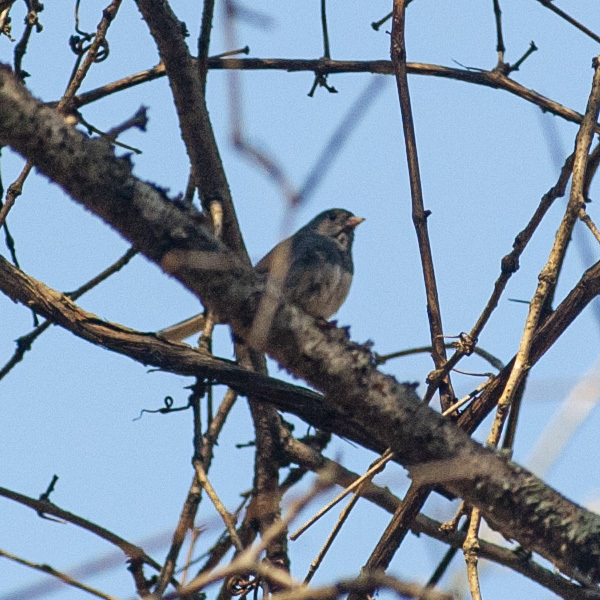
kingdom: Animalia
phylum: Chordata
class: Aves
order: Passeriformes
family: Passerellidae
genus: Junco
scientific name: Junco hyemalis
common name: Dark-eyed junco
